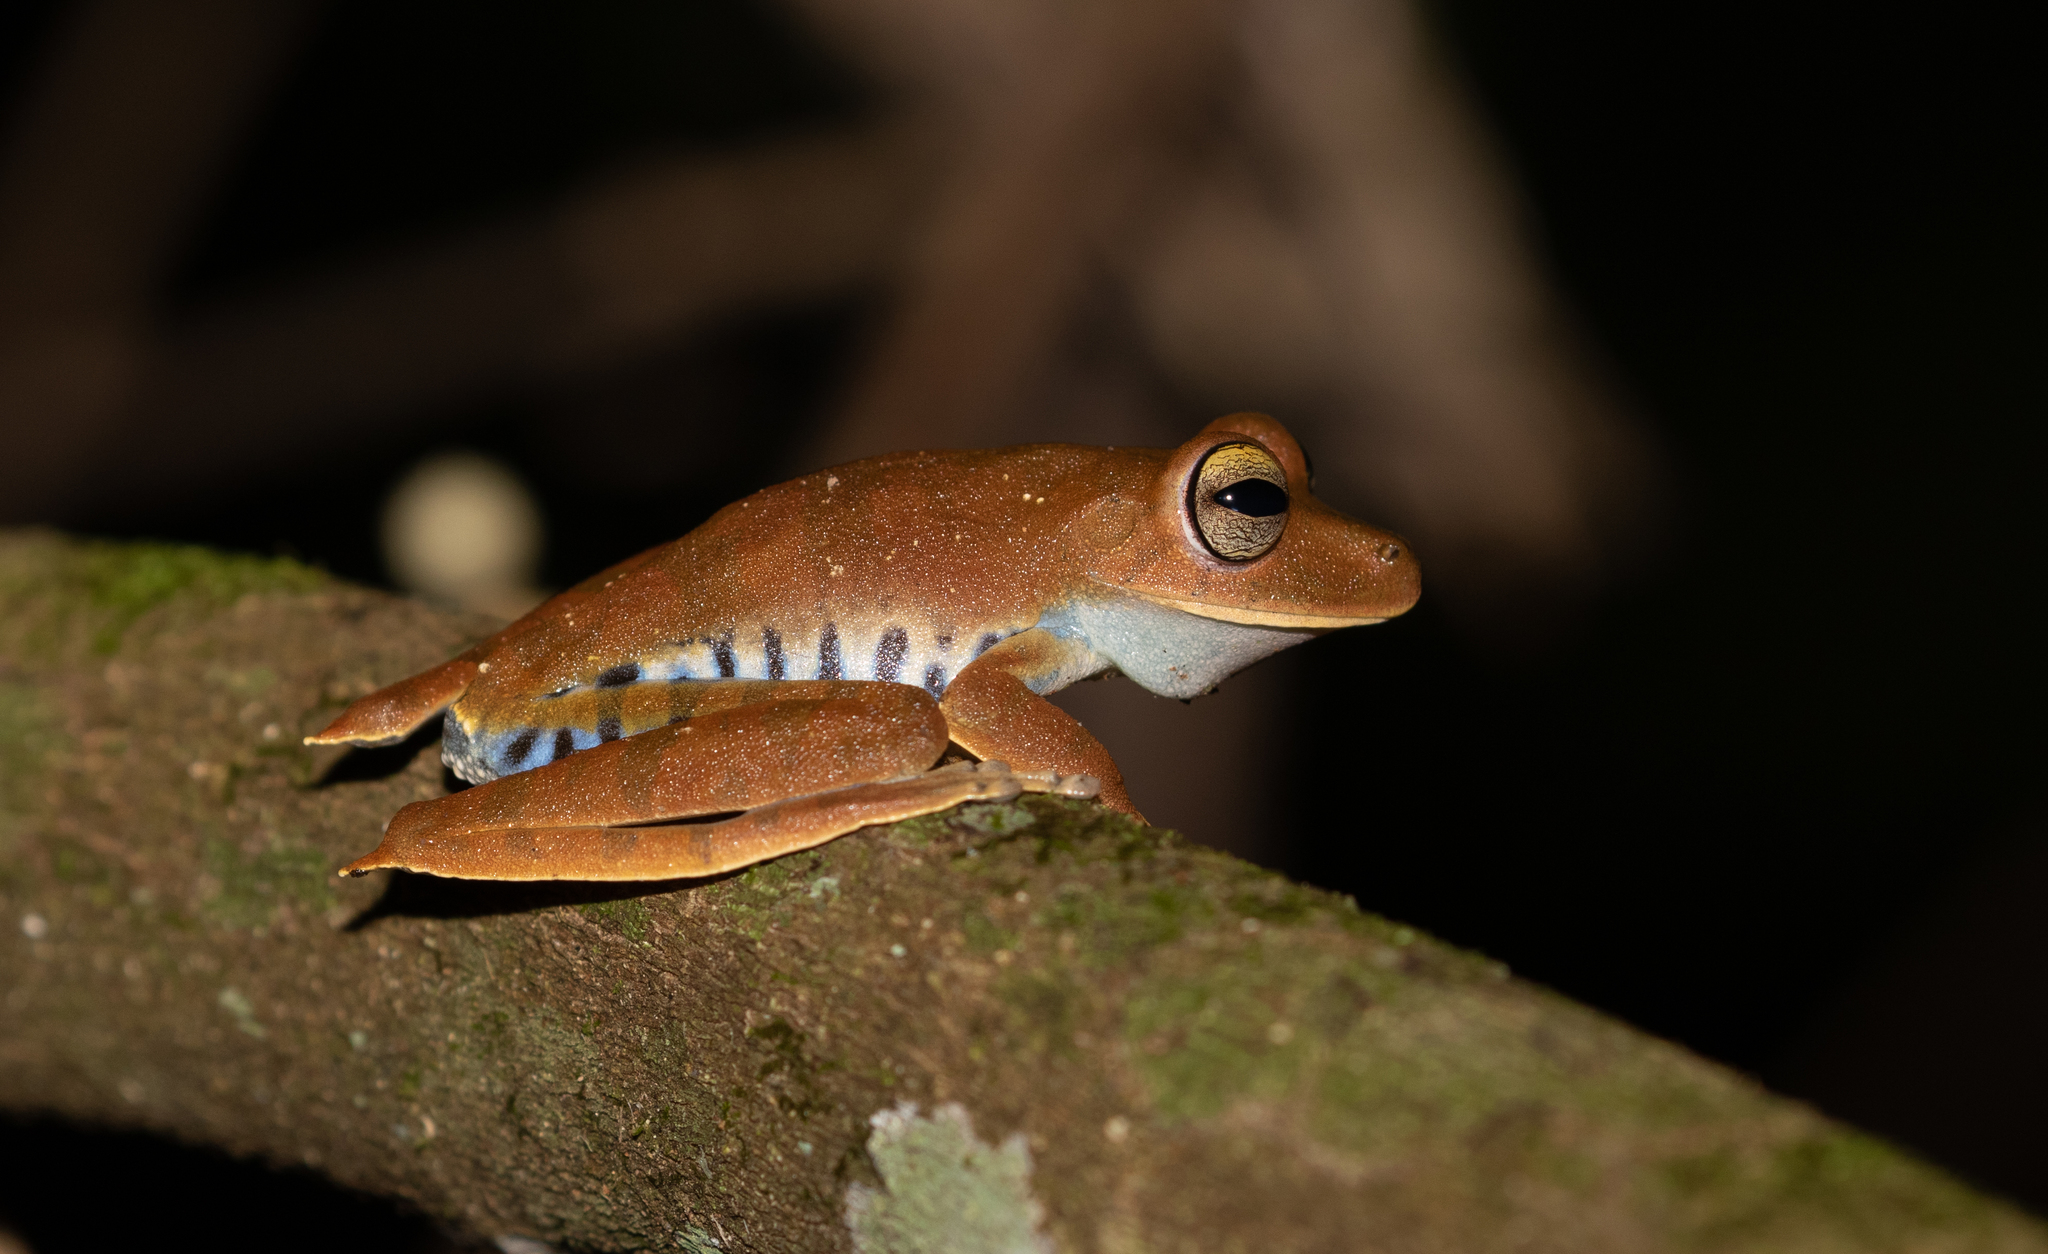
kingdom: Animalia
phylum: Chordata
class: Amphibia
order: Anura
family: Hylidae
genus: Boana
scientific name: Boana calcarata
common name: Blue-flanked treefrog
